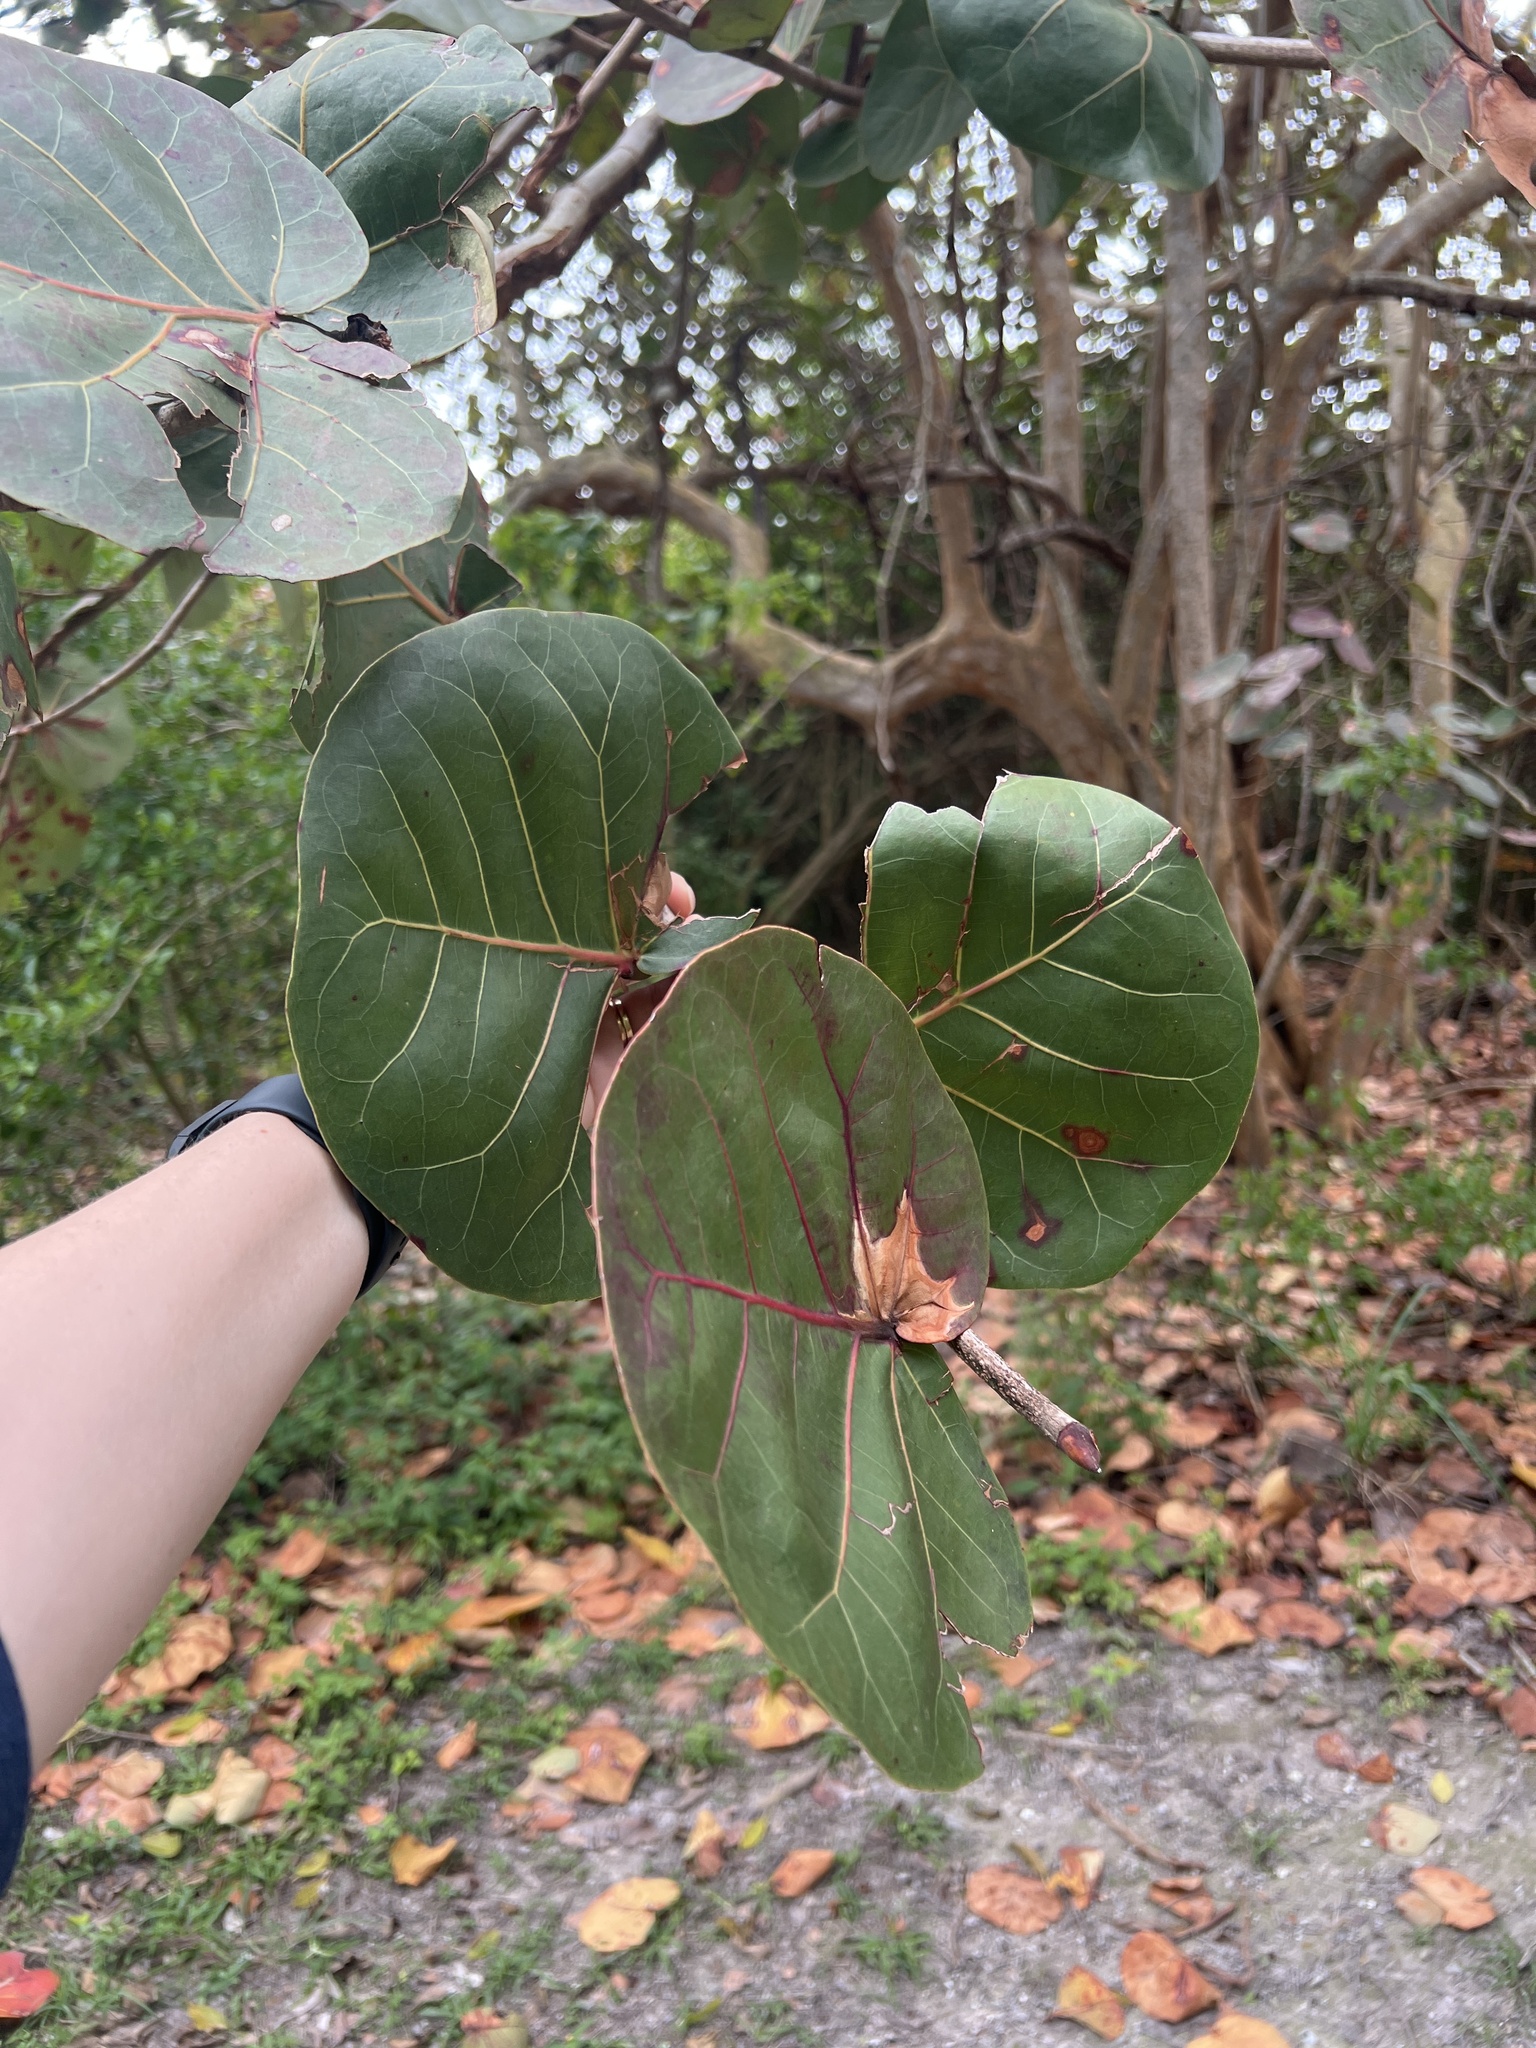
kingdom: Plantae
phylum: Tracheophyta
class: Magnoliopsida
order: Caryophyllales
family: Polygonaceae
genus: Coccoloba
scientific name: Coccoloba uvifera
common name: Seagrape
